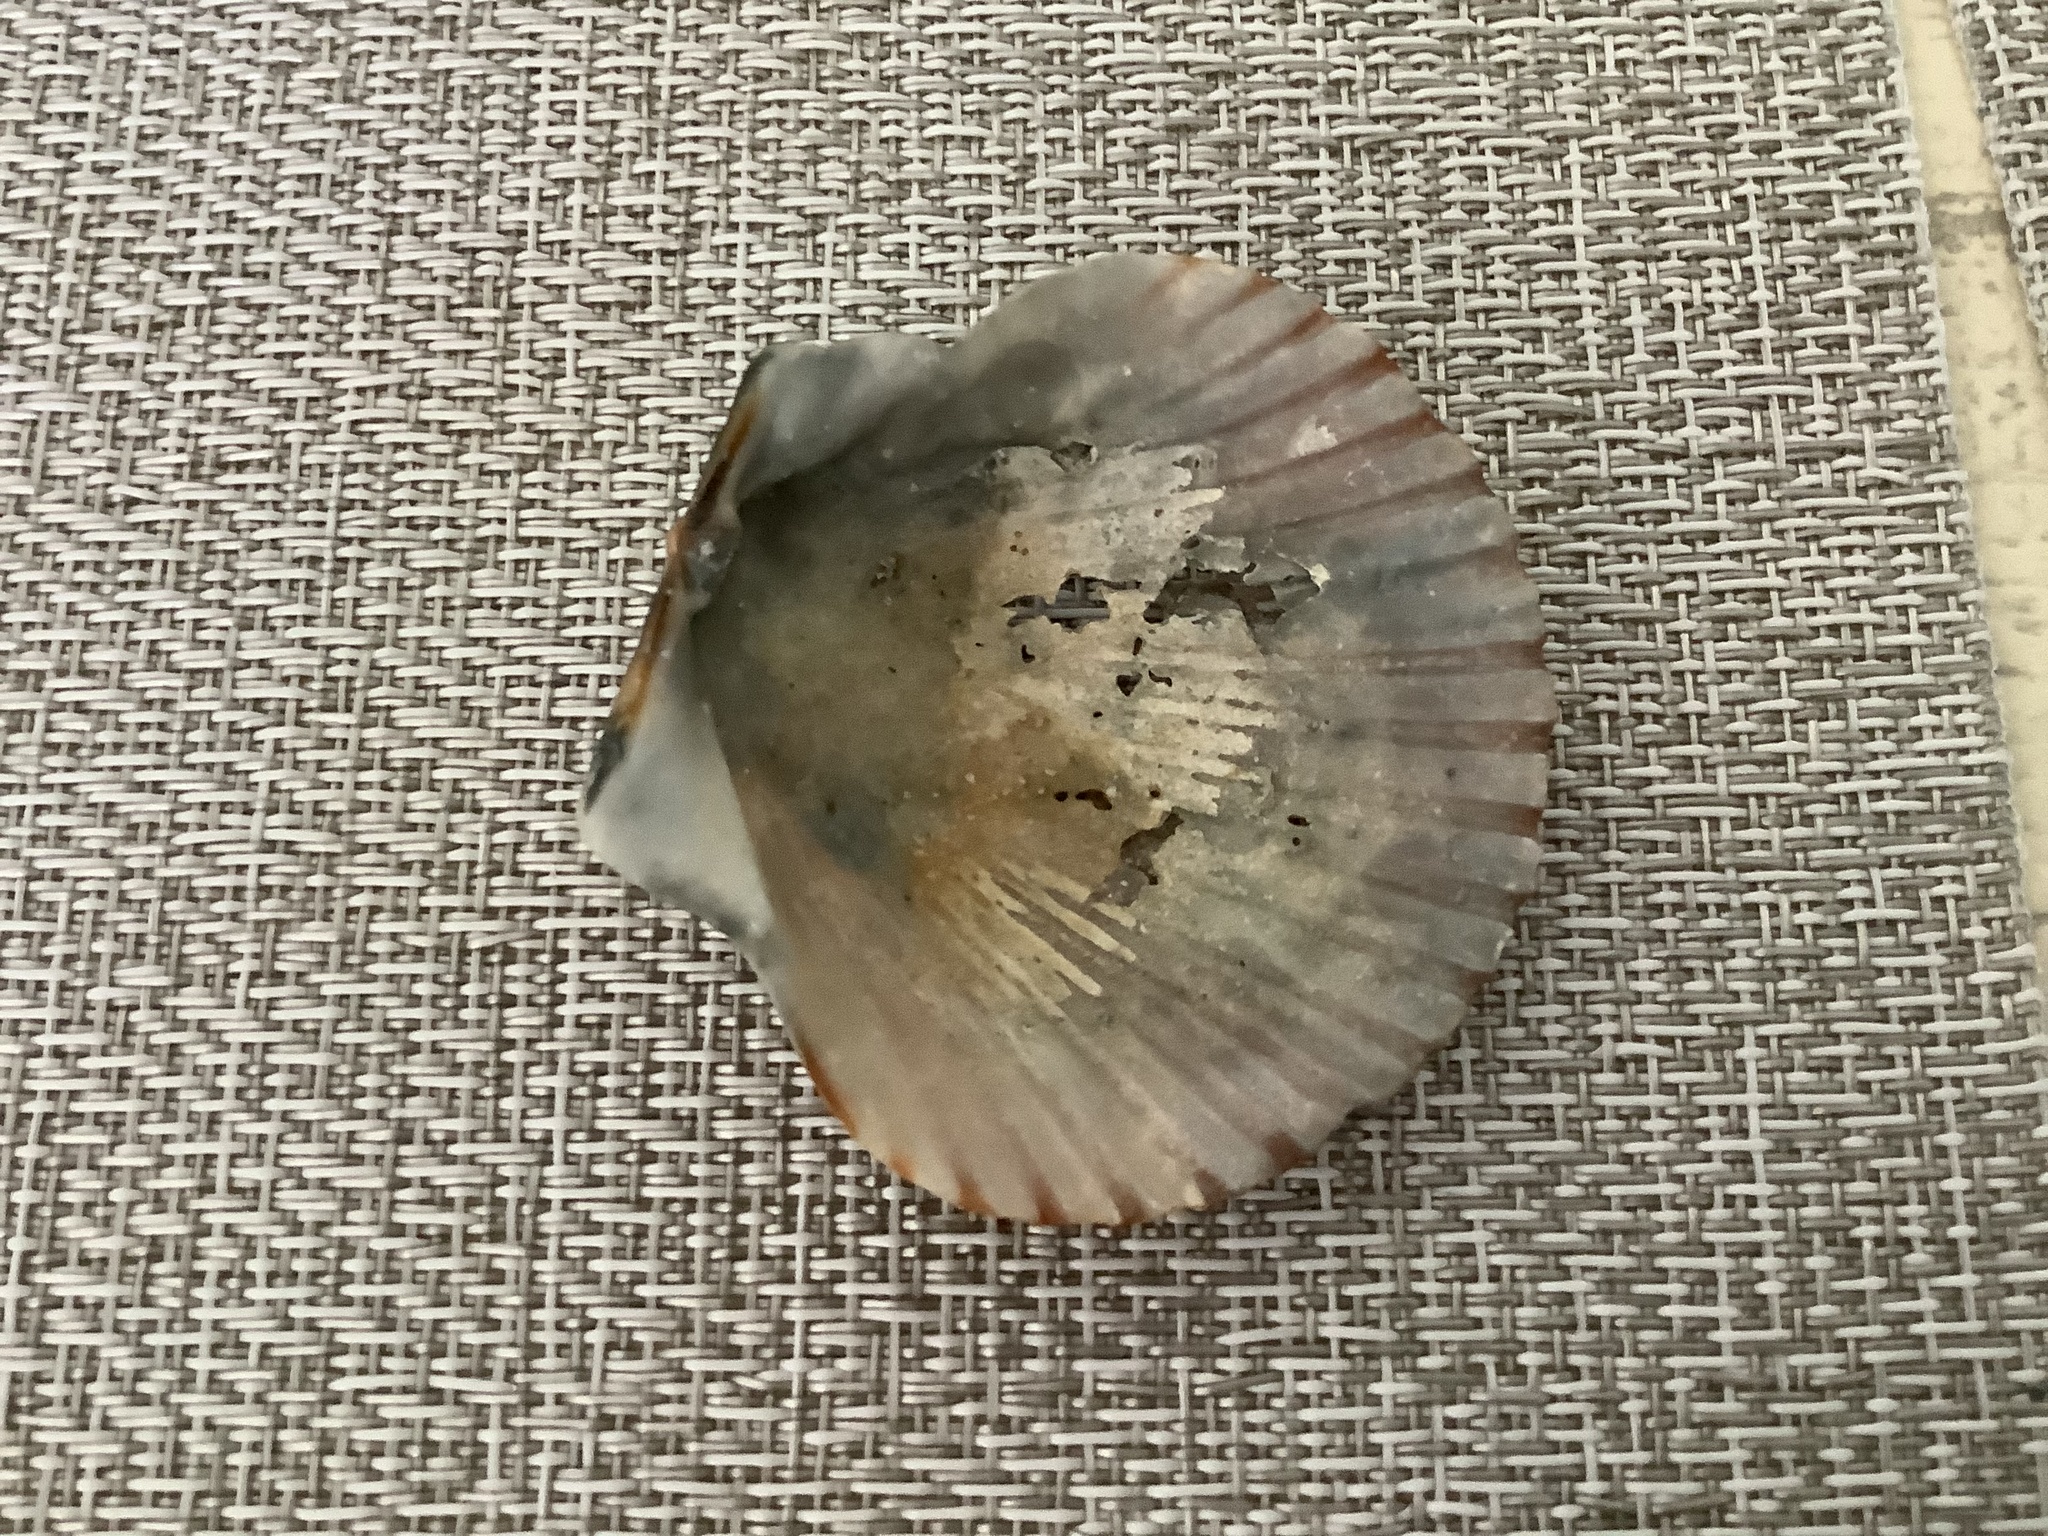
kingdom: Animalia
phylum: Mollusca
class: Bivalvia
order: Pectinida
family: Pectinidae
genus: Argopecten
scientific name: Argopecten irradians
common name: Atlantic bay scallop
